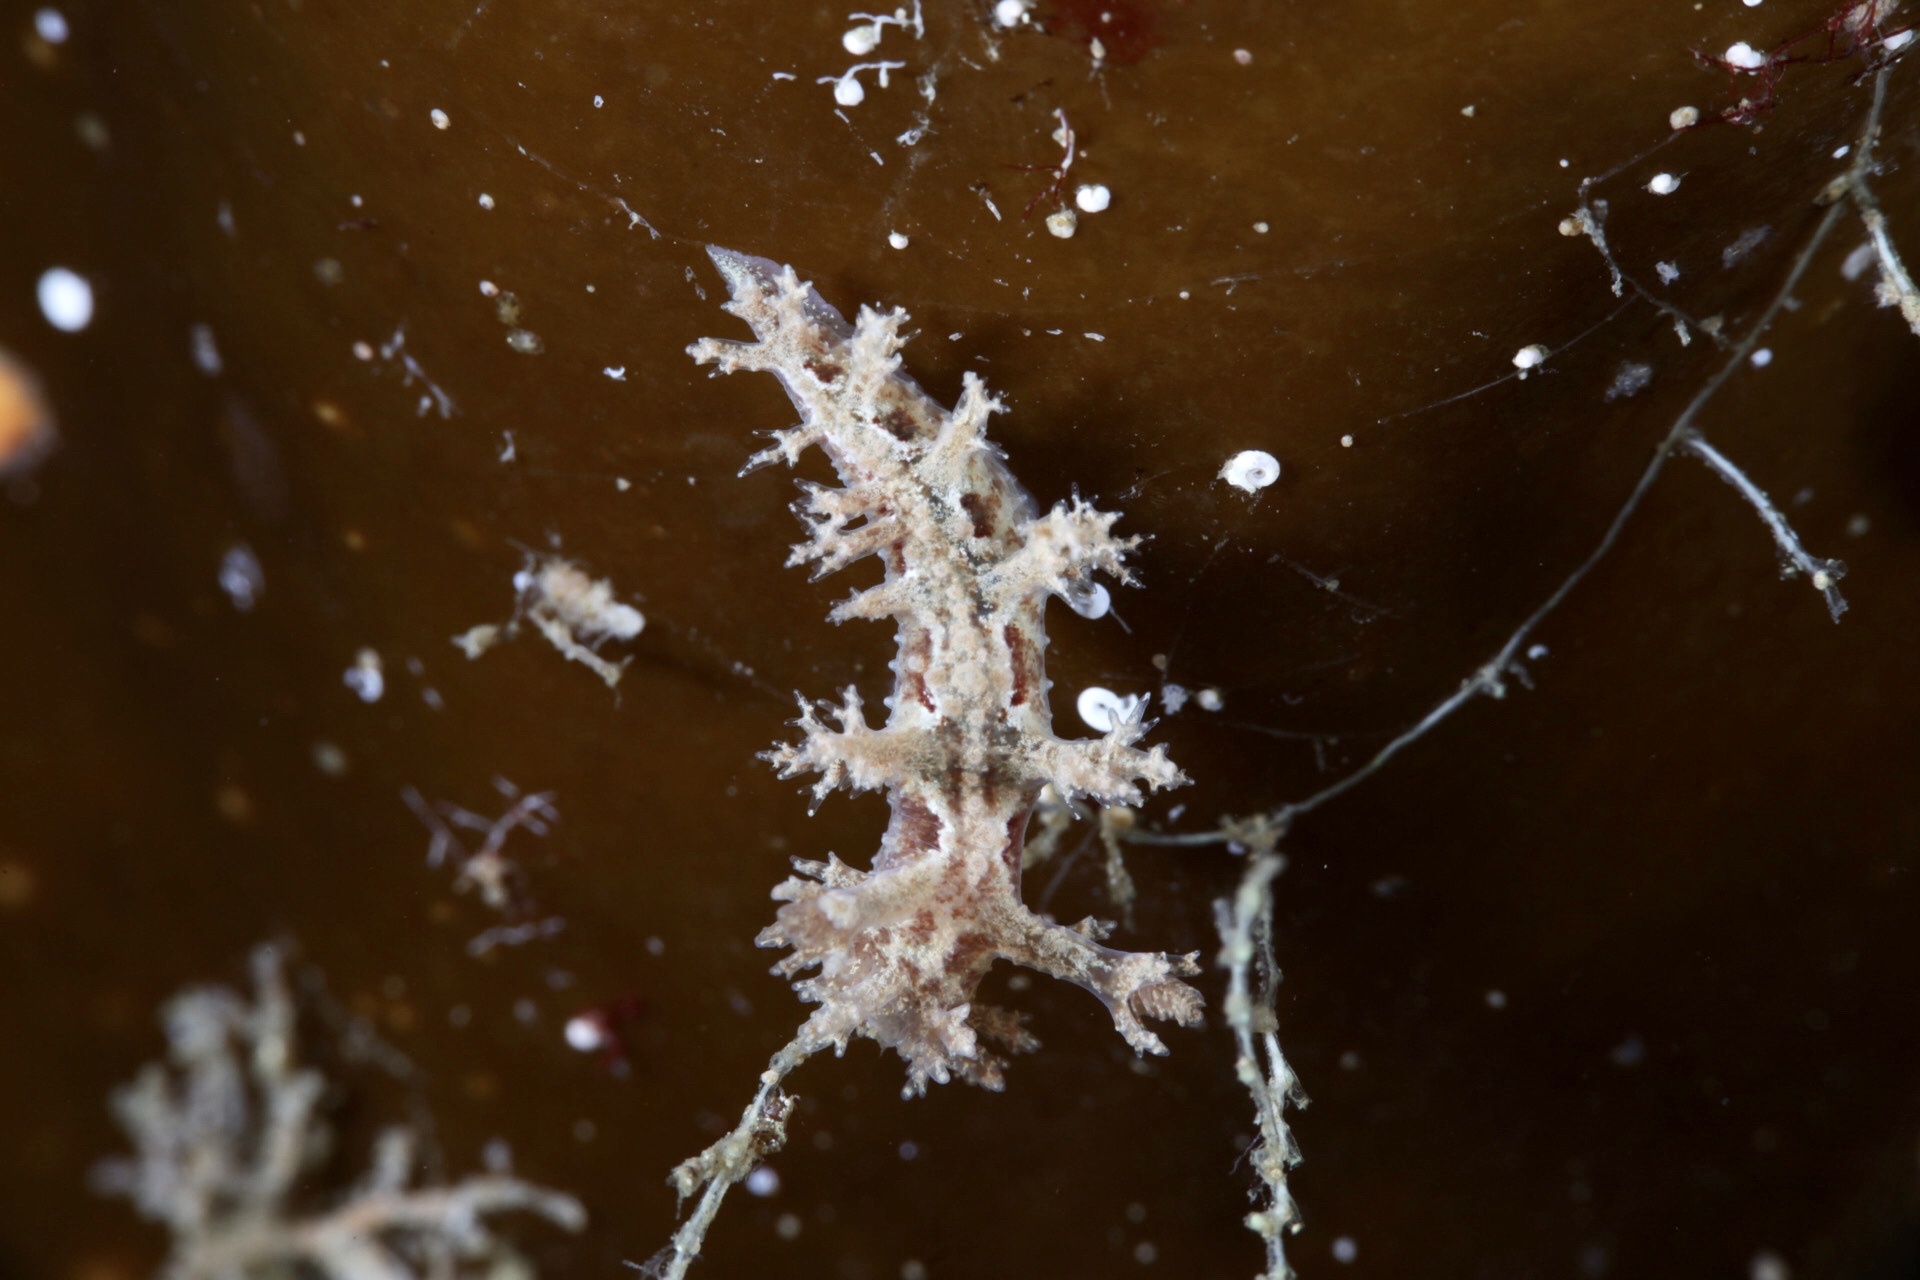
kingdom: Animalia
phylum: Mollusca
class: Gastropoda
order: Nudibranchia
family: Dendronotidae
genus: Dendronotus
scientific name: Dendronotus frondosus
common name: Bushy-backed nudibranch
